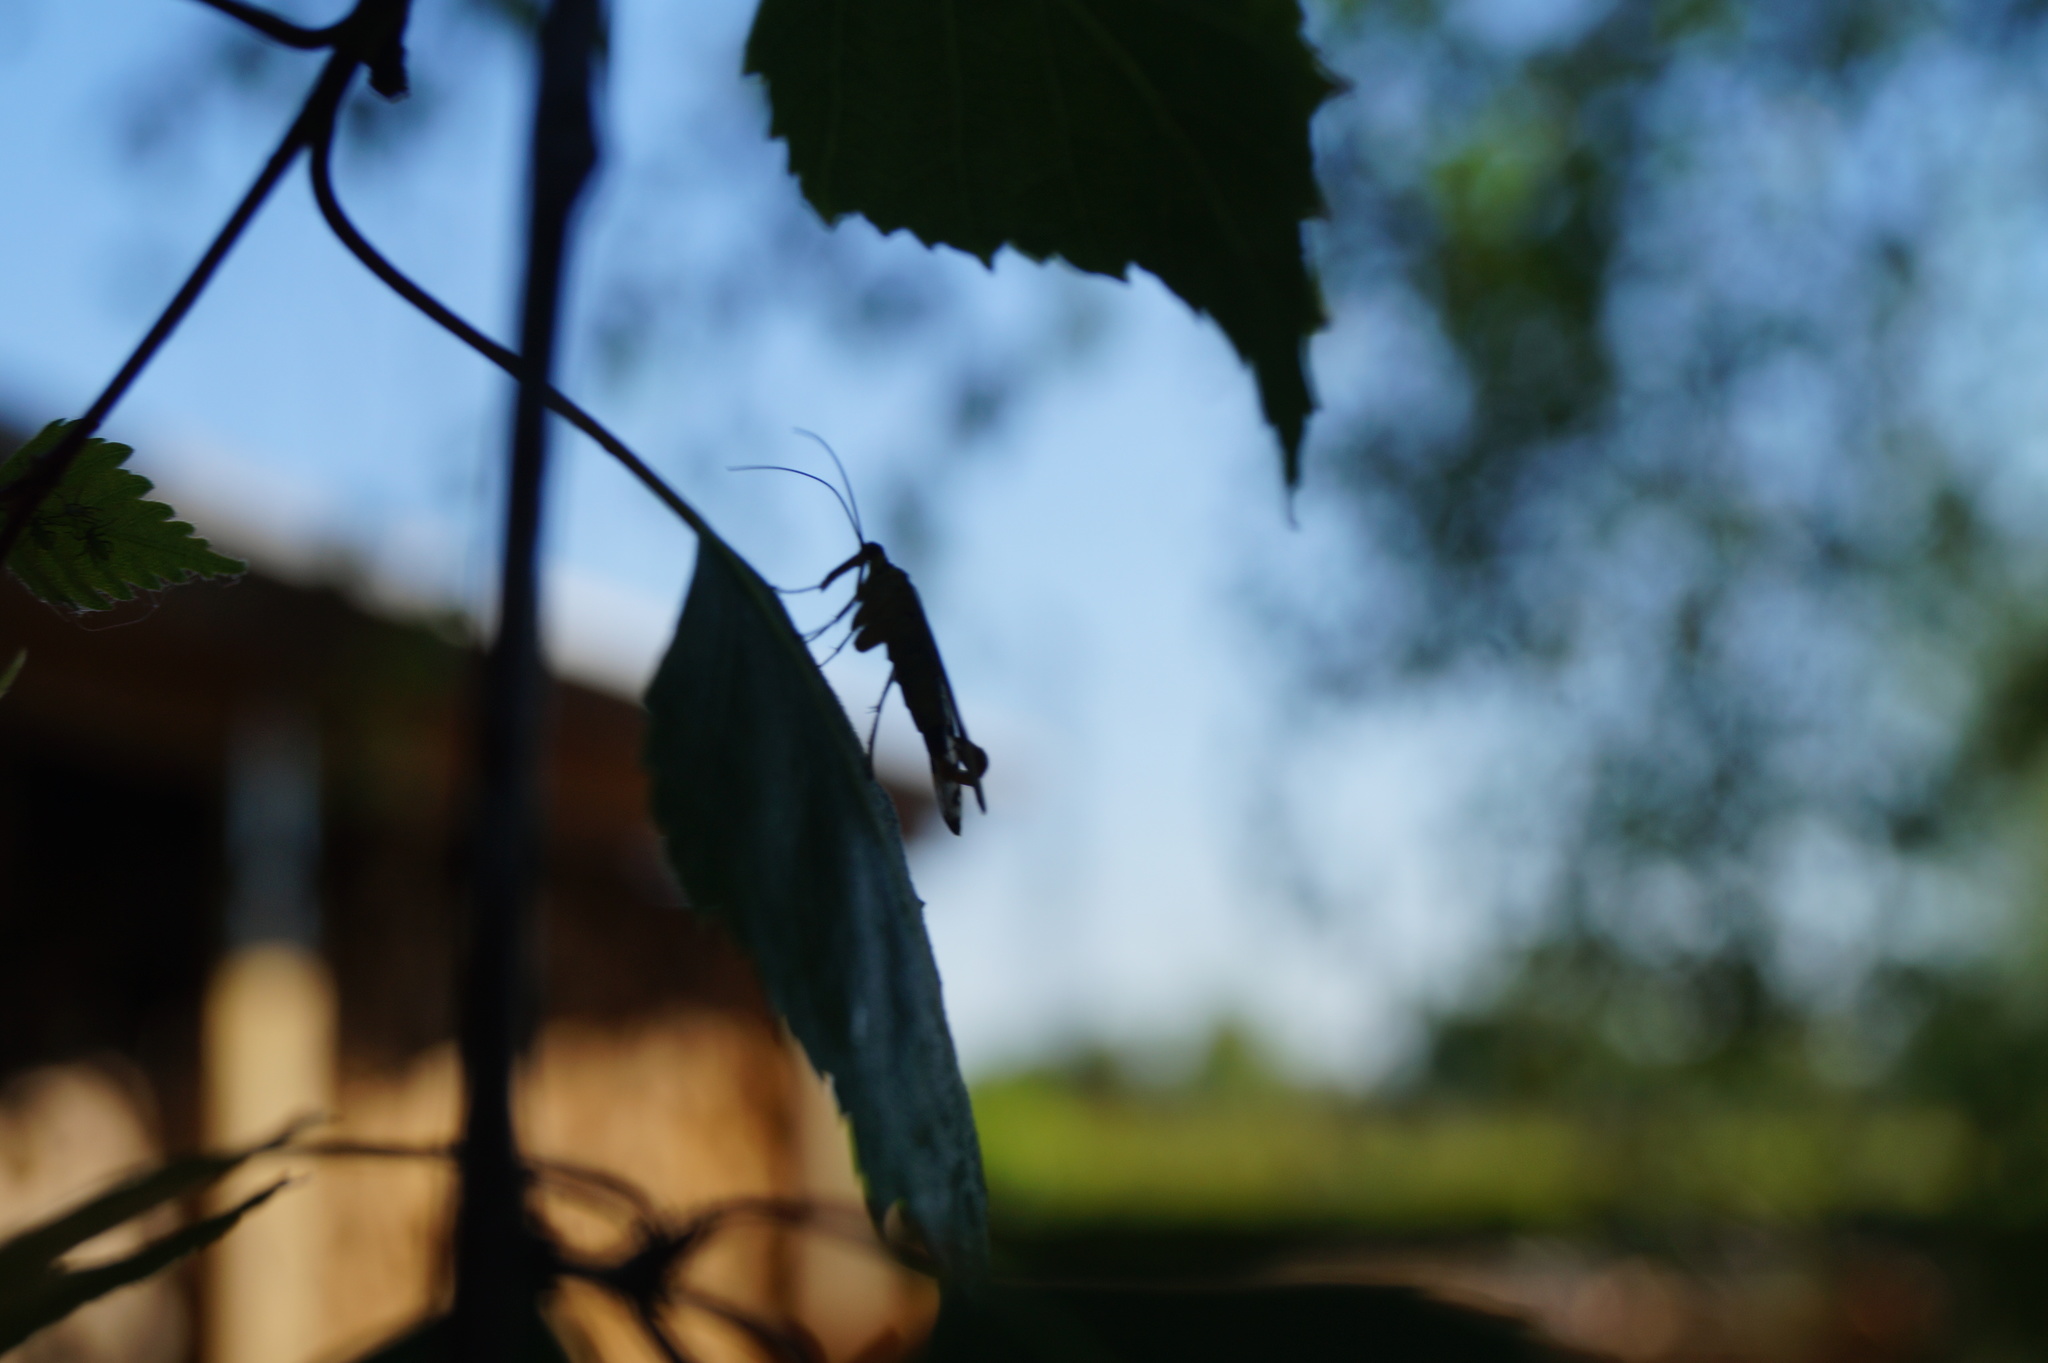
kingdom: Animalia
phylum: Arthropoda
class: Insecta
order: Mecoptera
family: Panorpidae
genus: Panorpa
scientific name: Panorpa germanica
